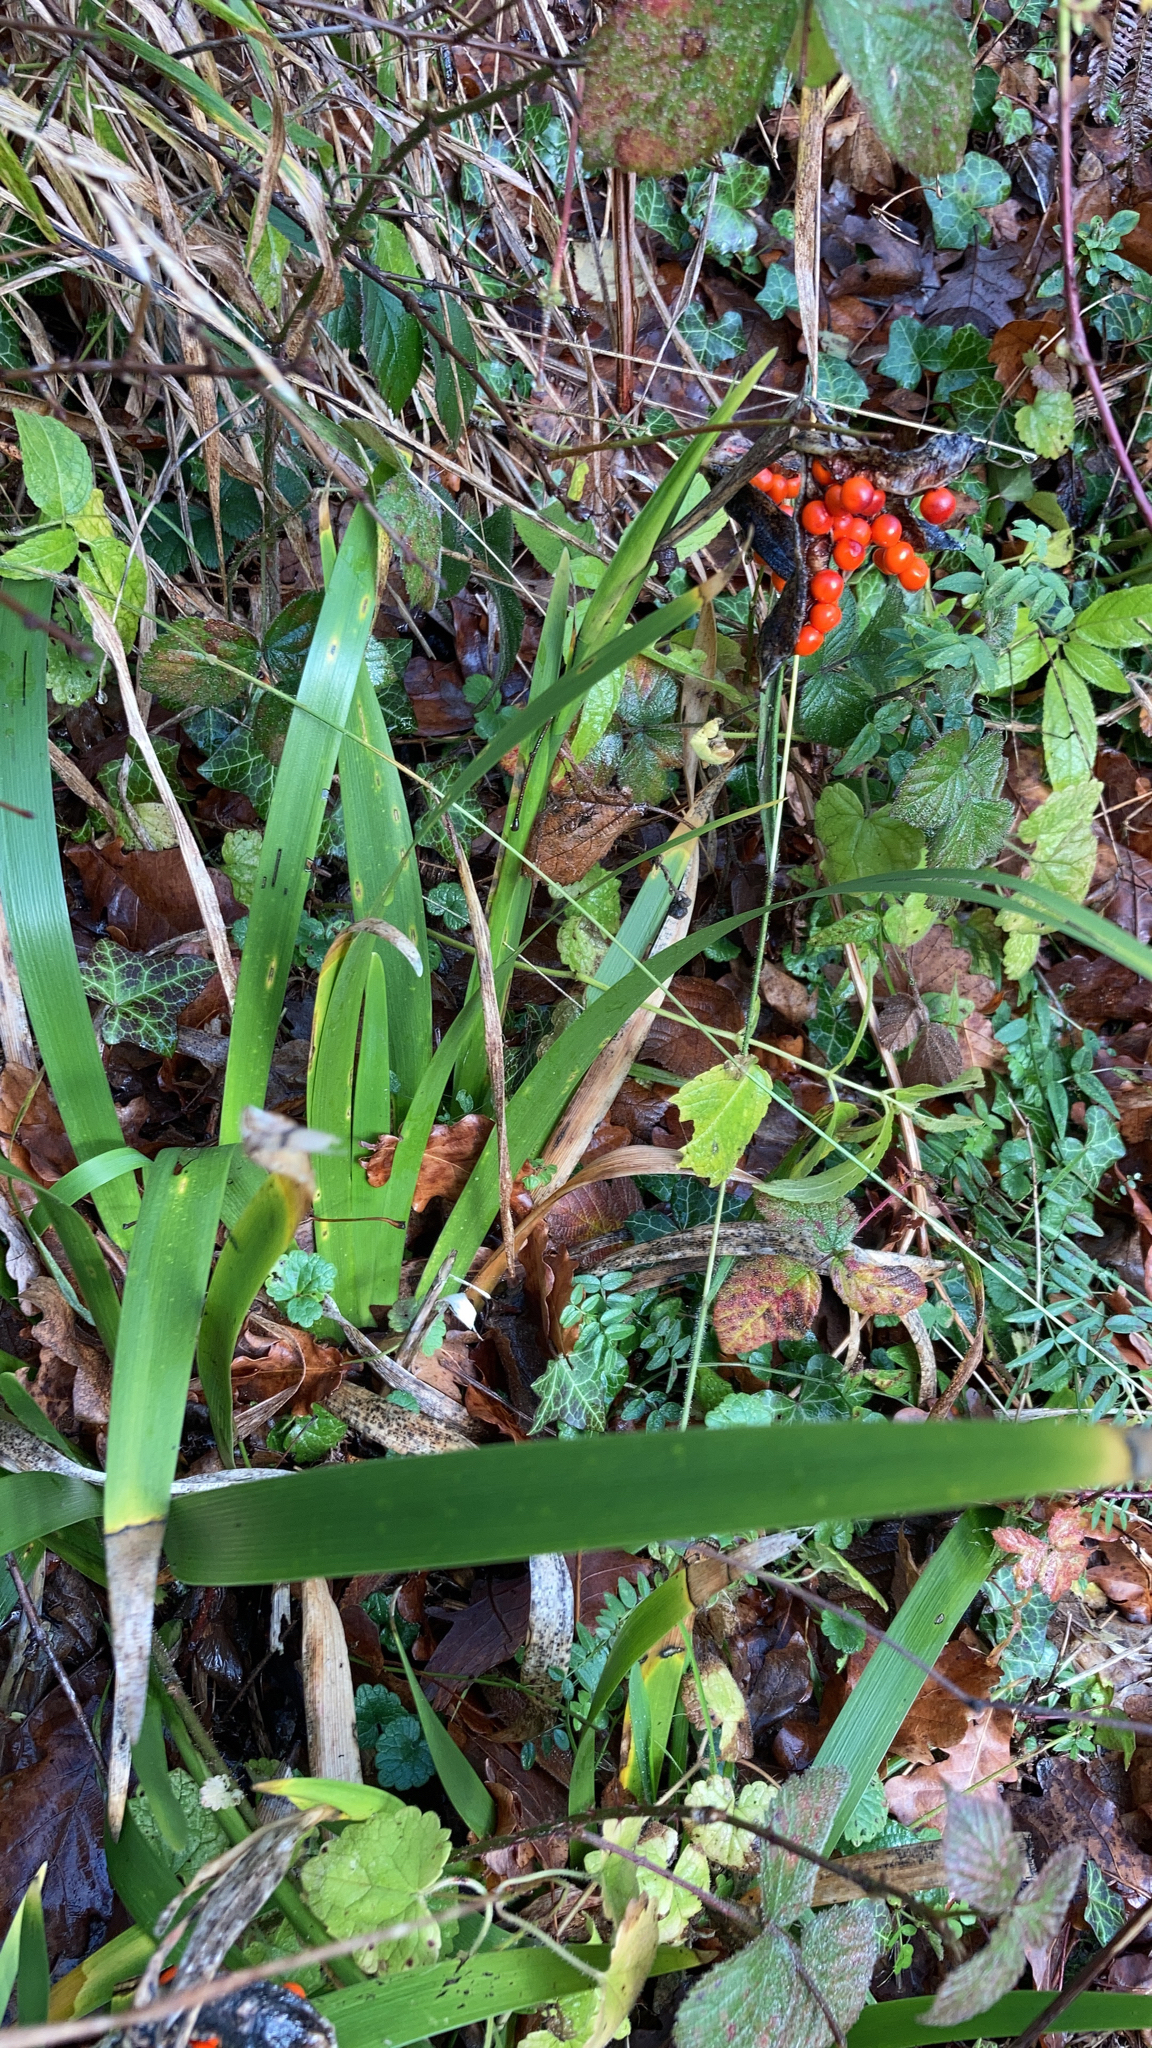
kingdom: Plantae
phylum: Tracheophyta
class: Liliopsida
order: Asparagales
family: Iridaceae
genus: Iris
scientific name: Iris foetidissima
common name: Stinking iris
